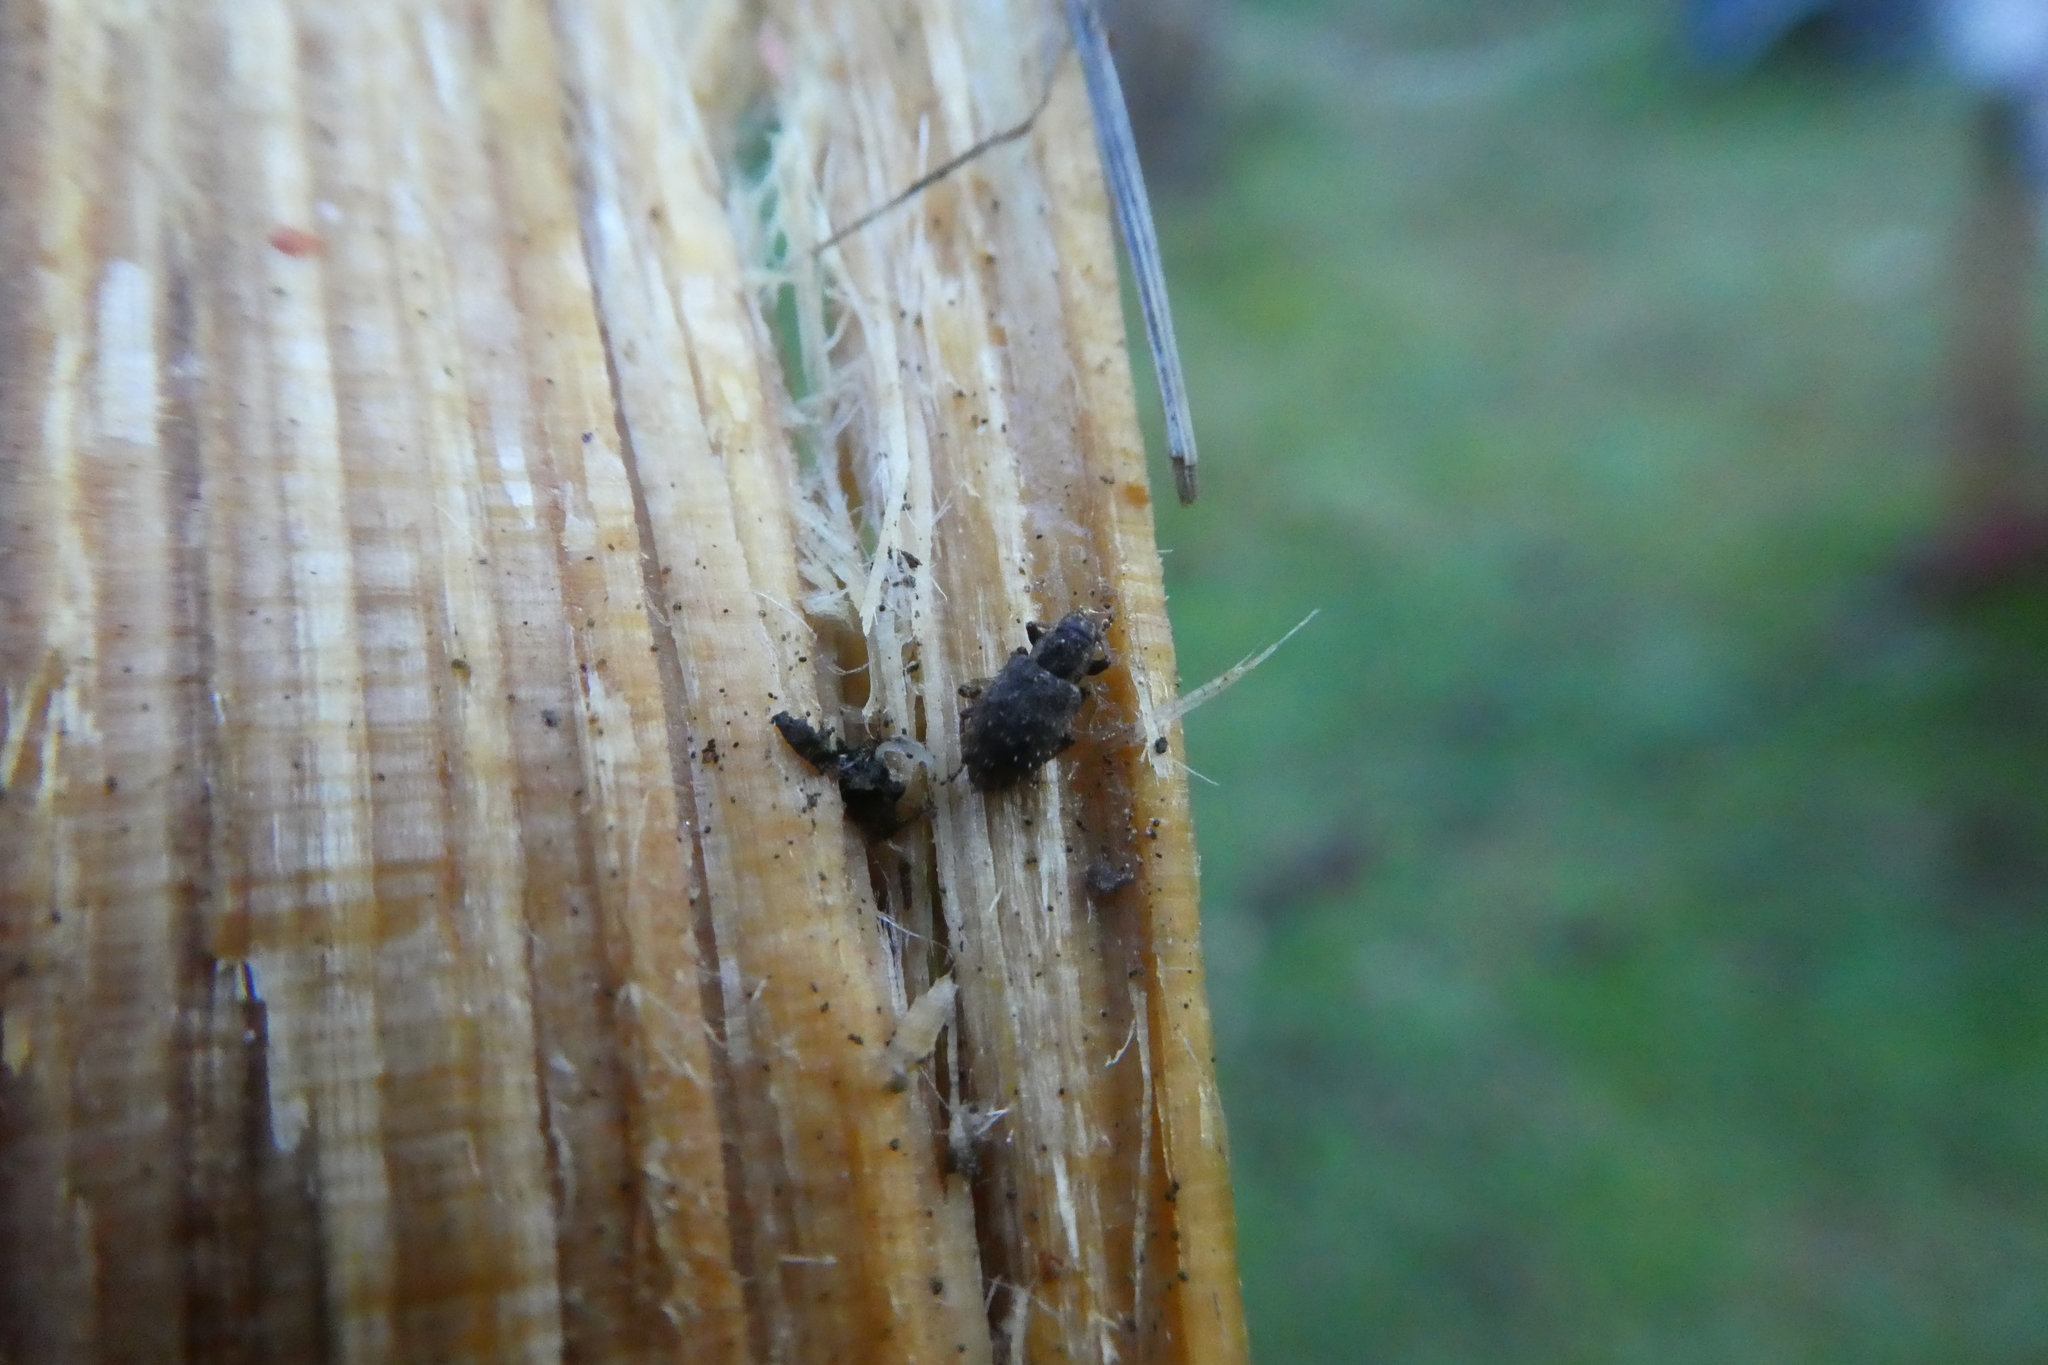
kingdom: Animalia
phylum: Arthropoda
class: Insecta
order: Coleoptera
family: Curculionidae
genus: Sitona
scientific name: Sitona hispidulus
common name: Clover weevil
